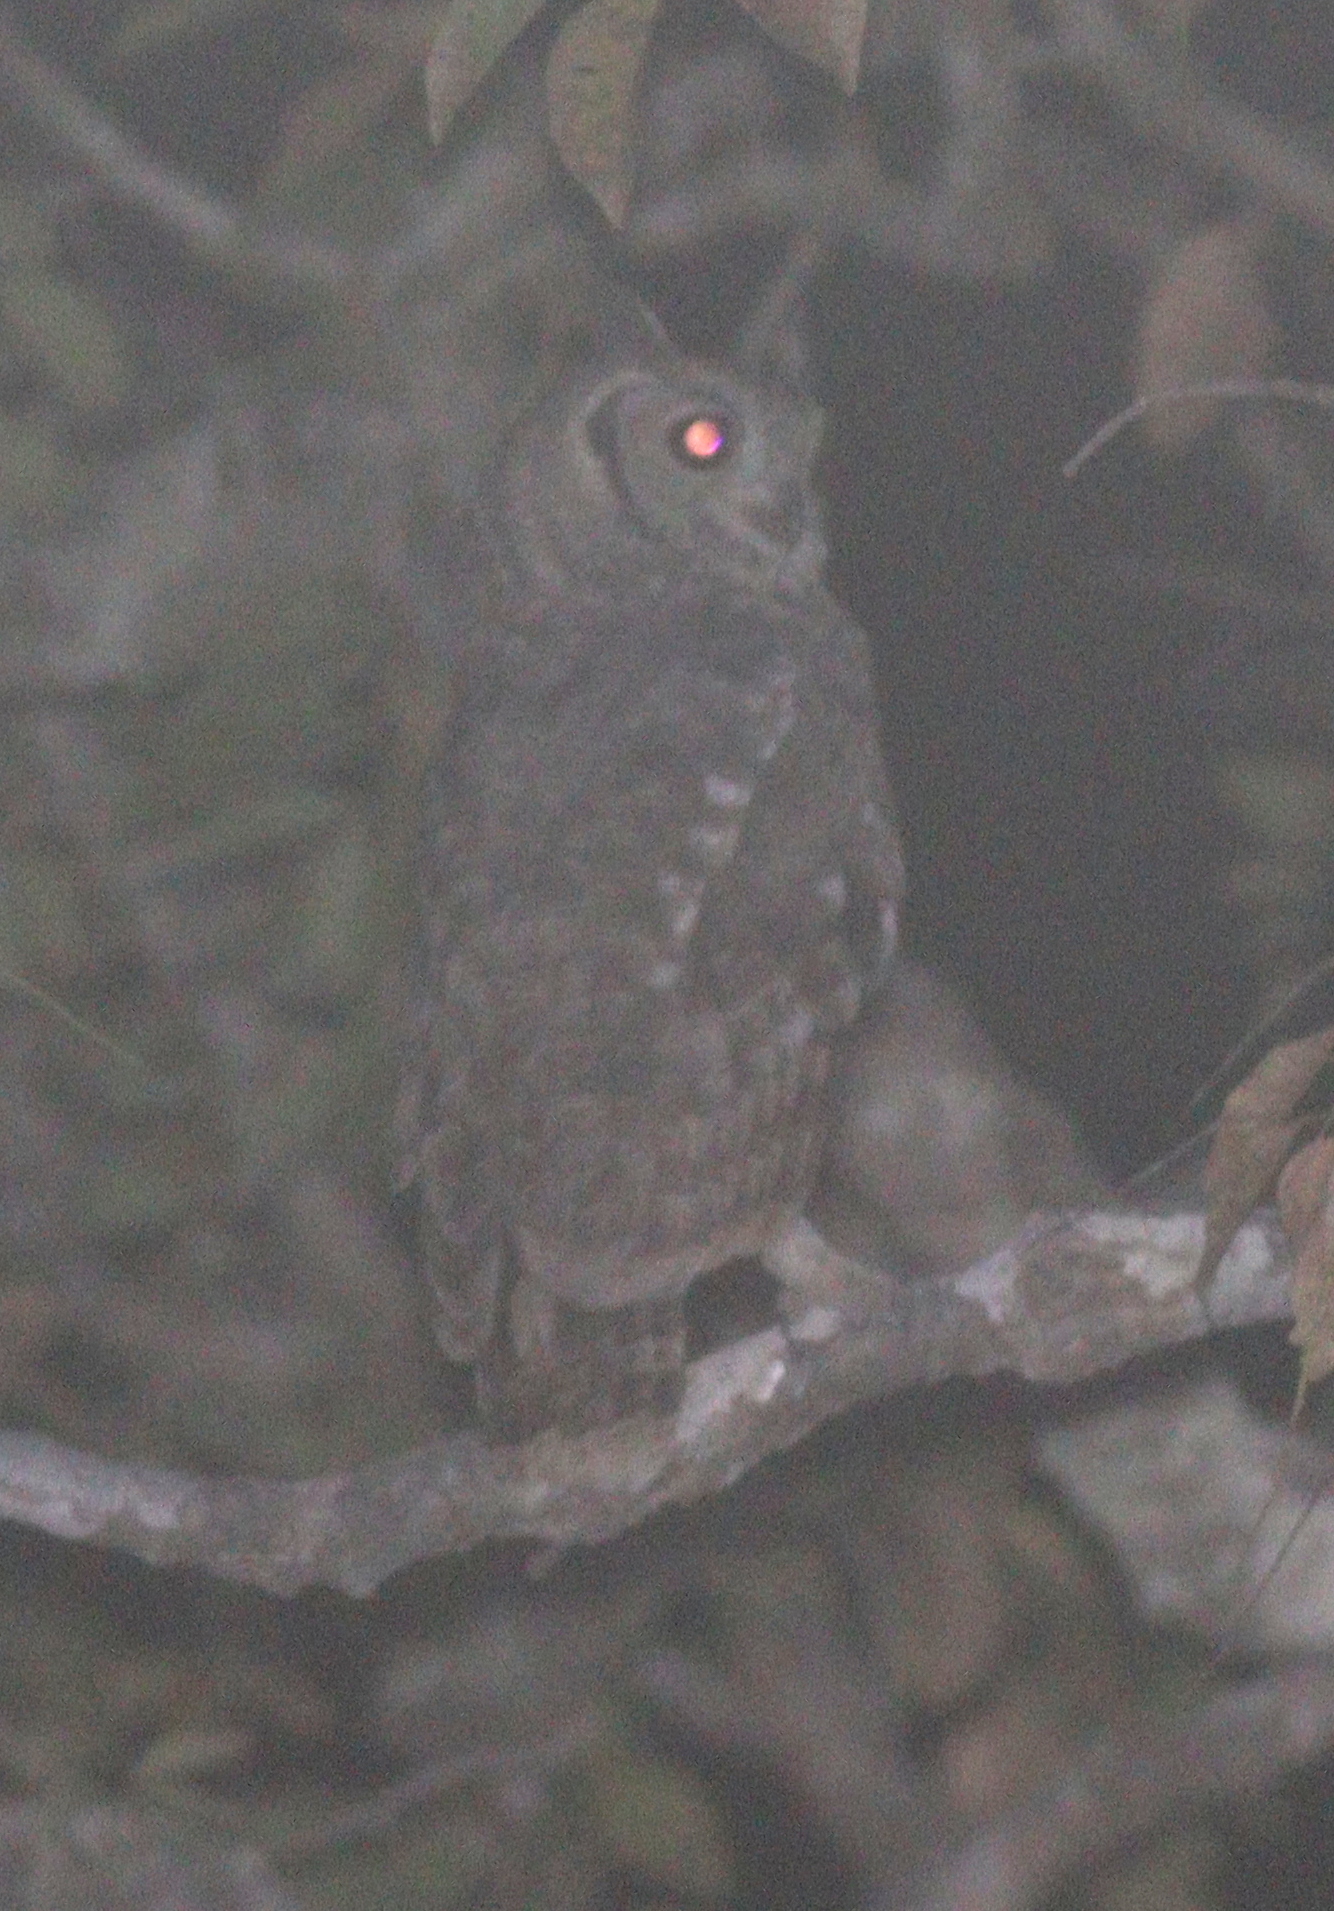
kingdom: Animalia
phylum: Chordata
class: Aves
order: Strigiformes
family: Strigidae
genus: Bubo
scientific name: Bubo cinerascens
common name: Greyish eagle-owl
